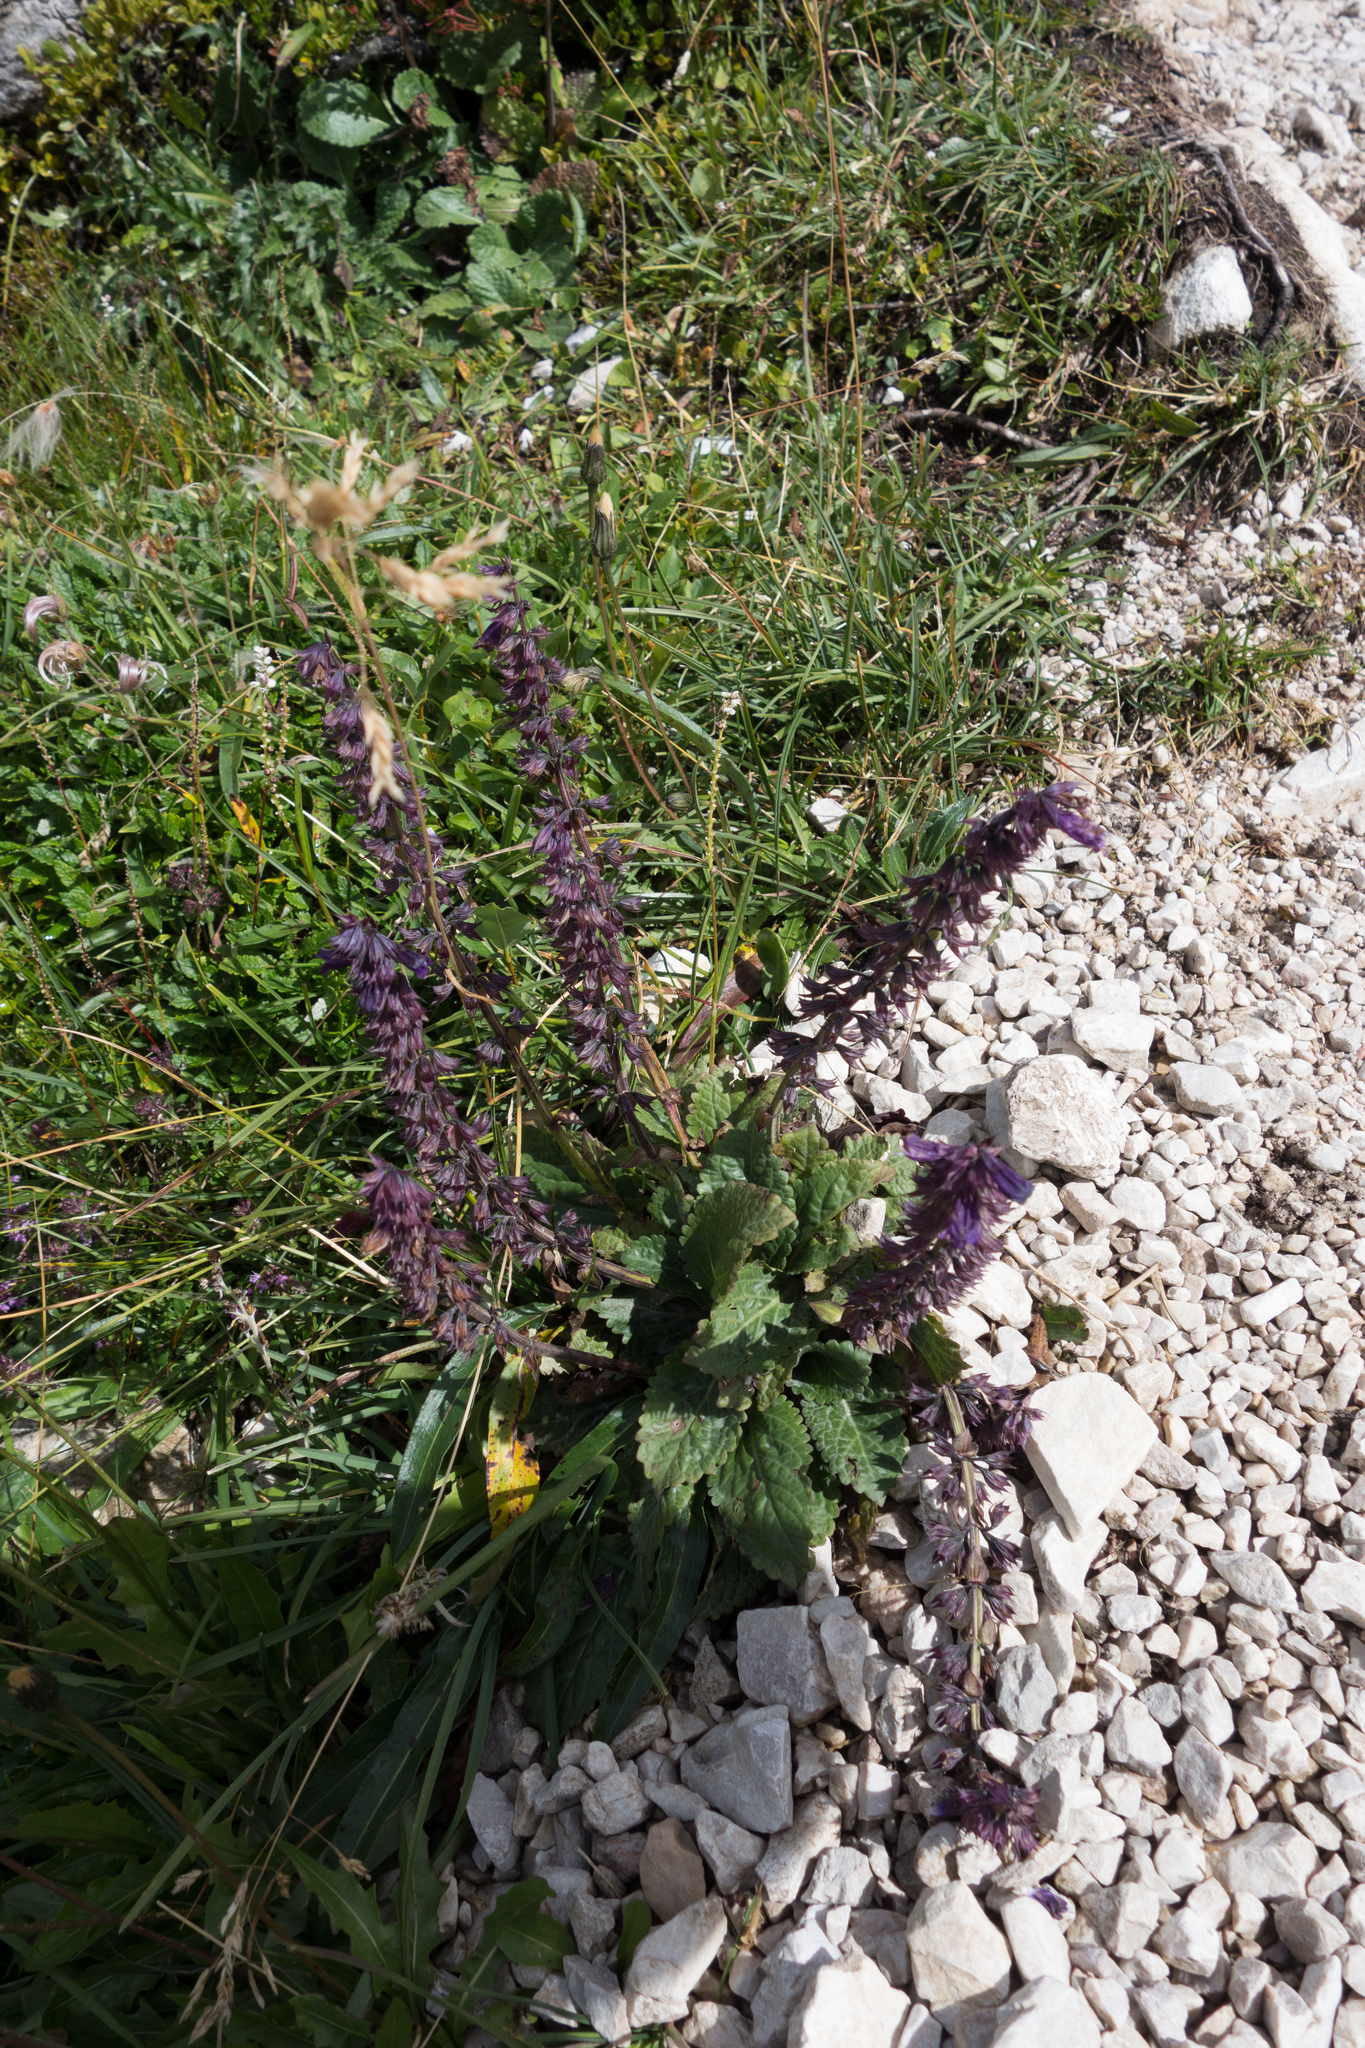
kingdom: Plantae
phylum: Tracheophyta
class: Magnoliopsida
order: Lamiales
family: Lamiaceae
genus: Salvia
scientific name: Salvia pratensis
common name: Meadow sage
